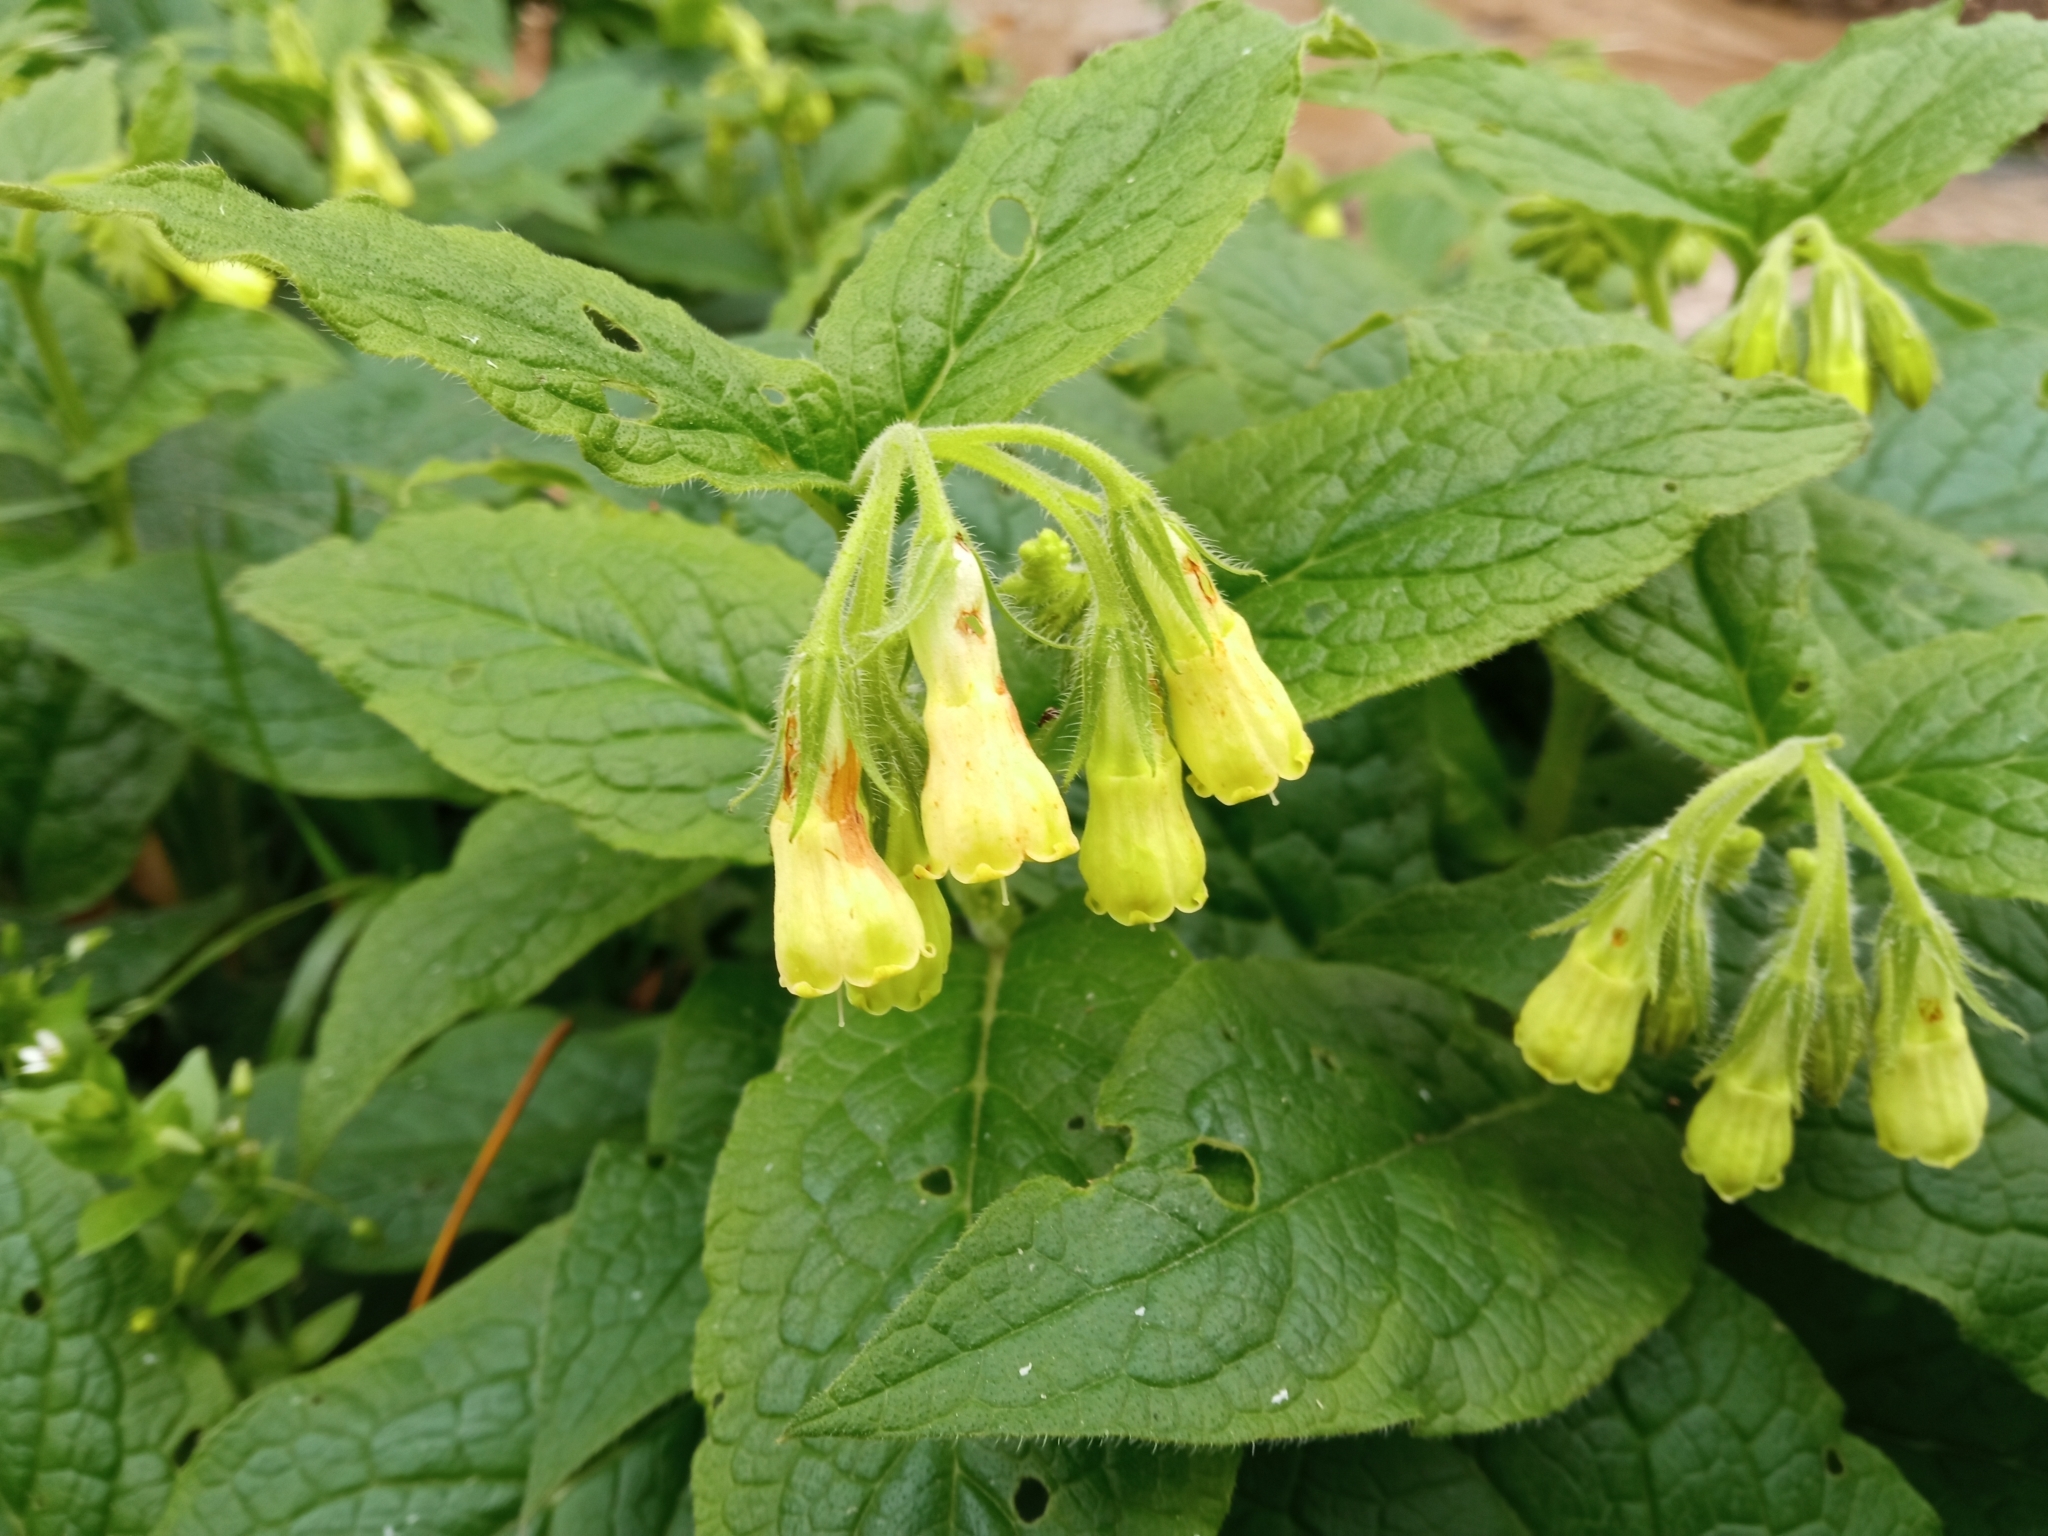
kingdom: Plantae
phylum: Tracheophyta
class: Magnoliopsida
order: Boraginales
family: Boraginaceae
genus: Symphytum
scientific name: Symphytum tuberosum
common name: Tuberous comfrey
